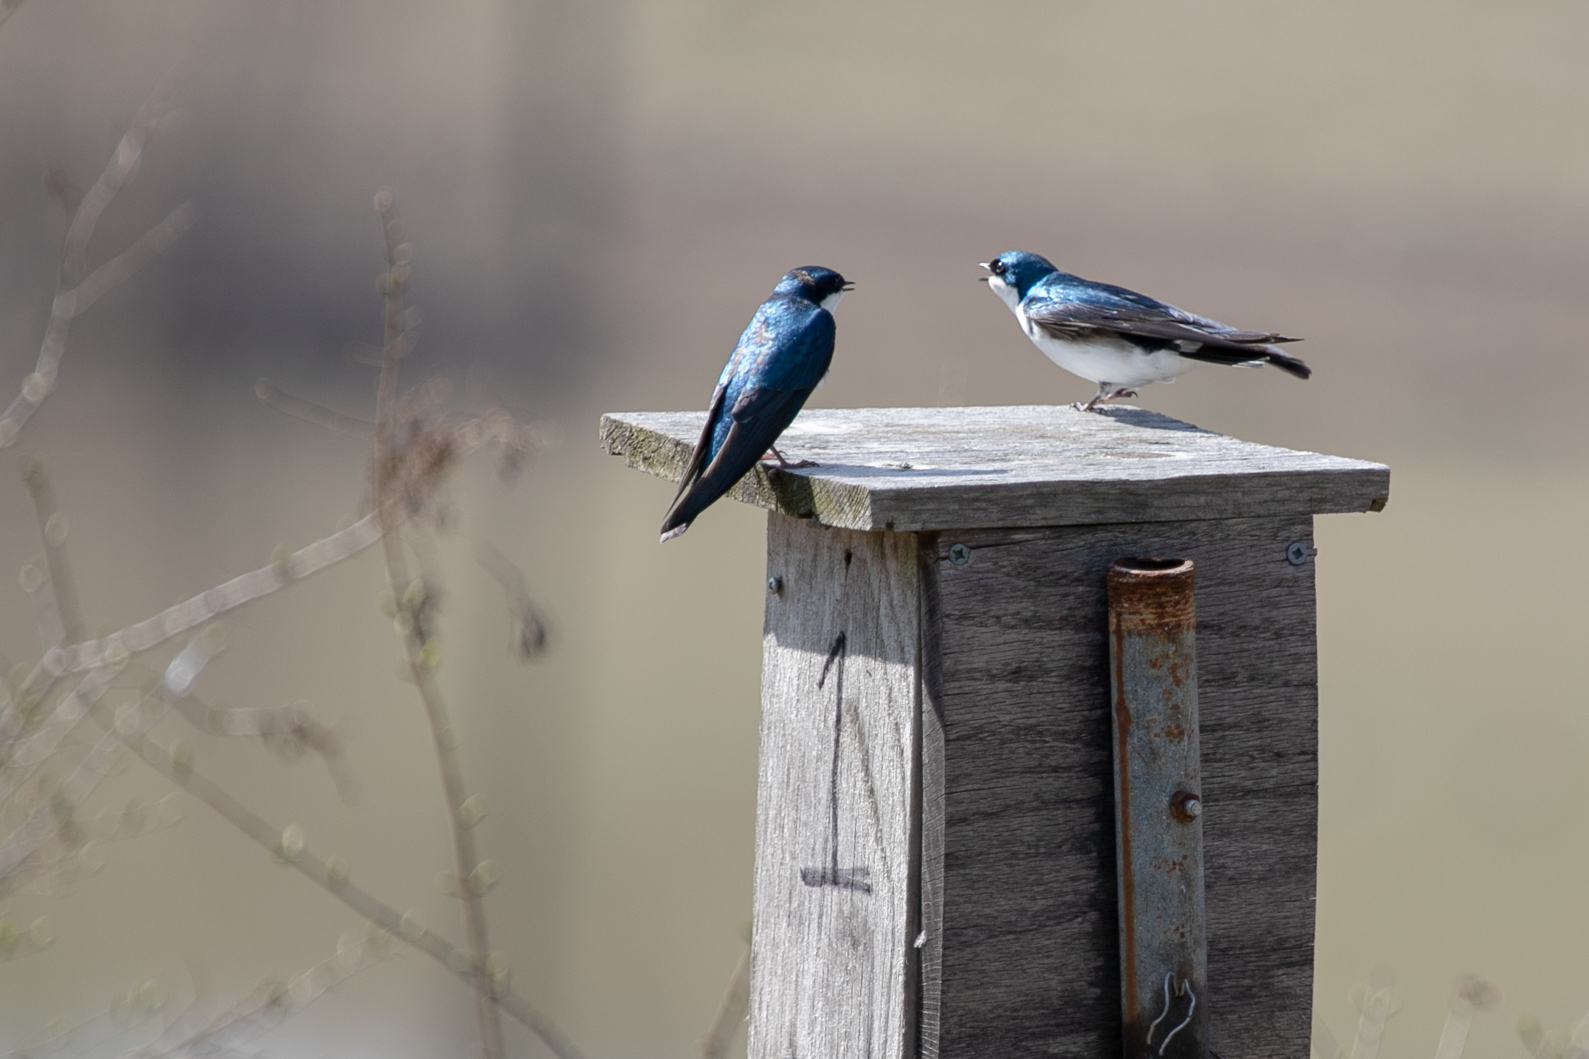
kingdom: Animalia
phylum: Chordata
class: Aves
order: Passeriformes
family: Hirundinidae
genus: Tachycineta
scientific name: Tachycineta bicolor
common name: Tree swallow
